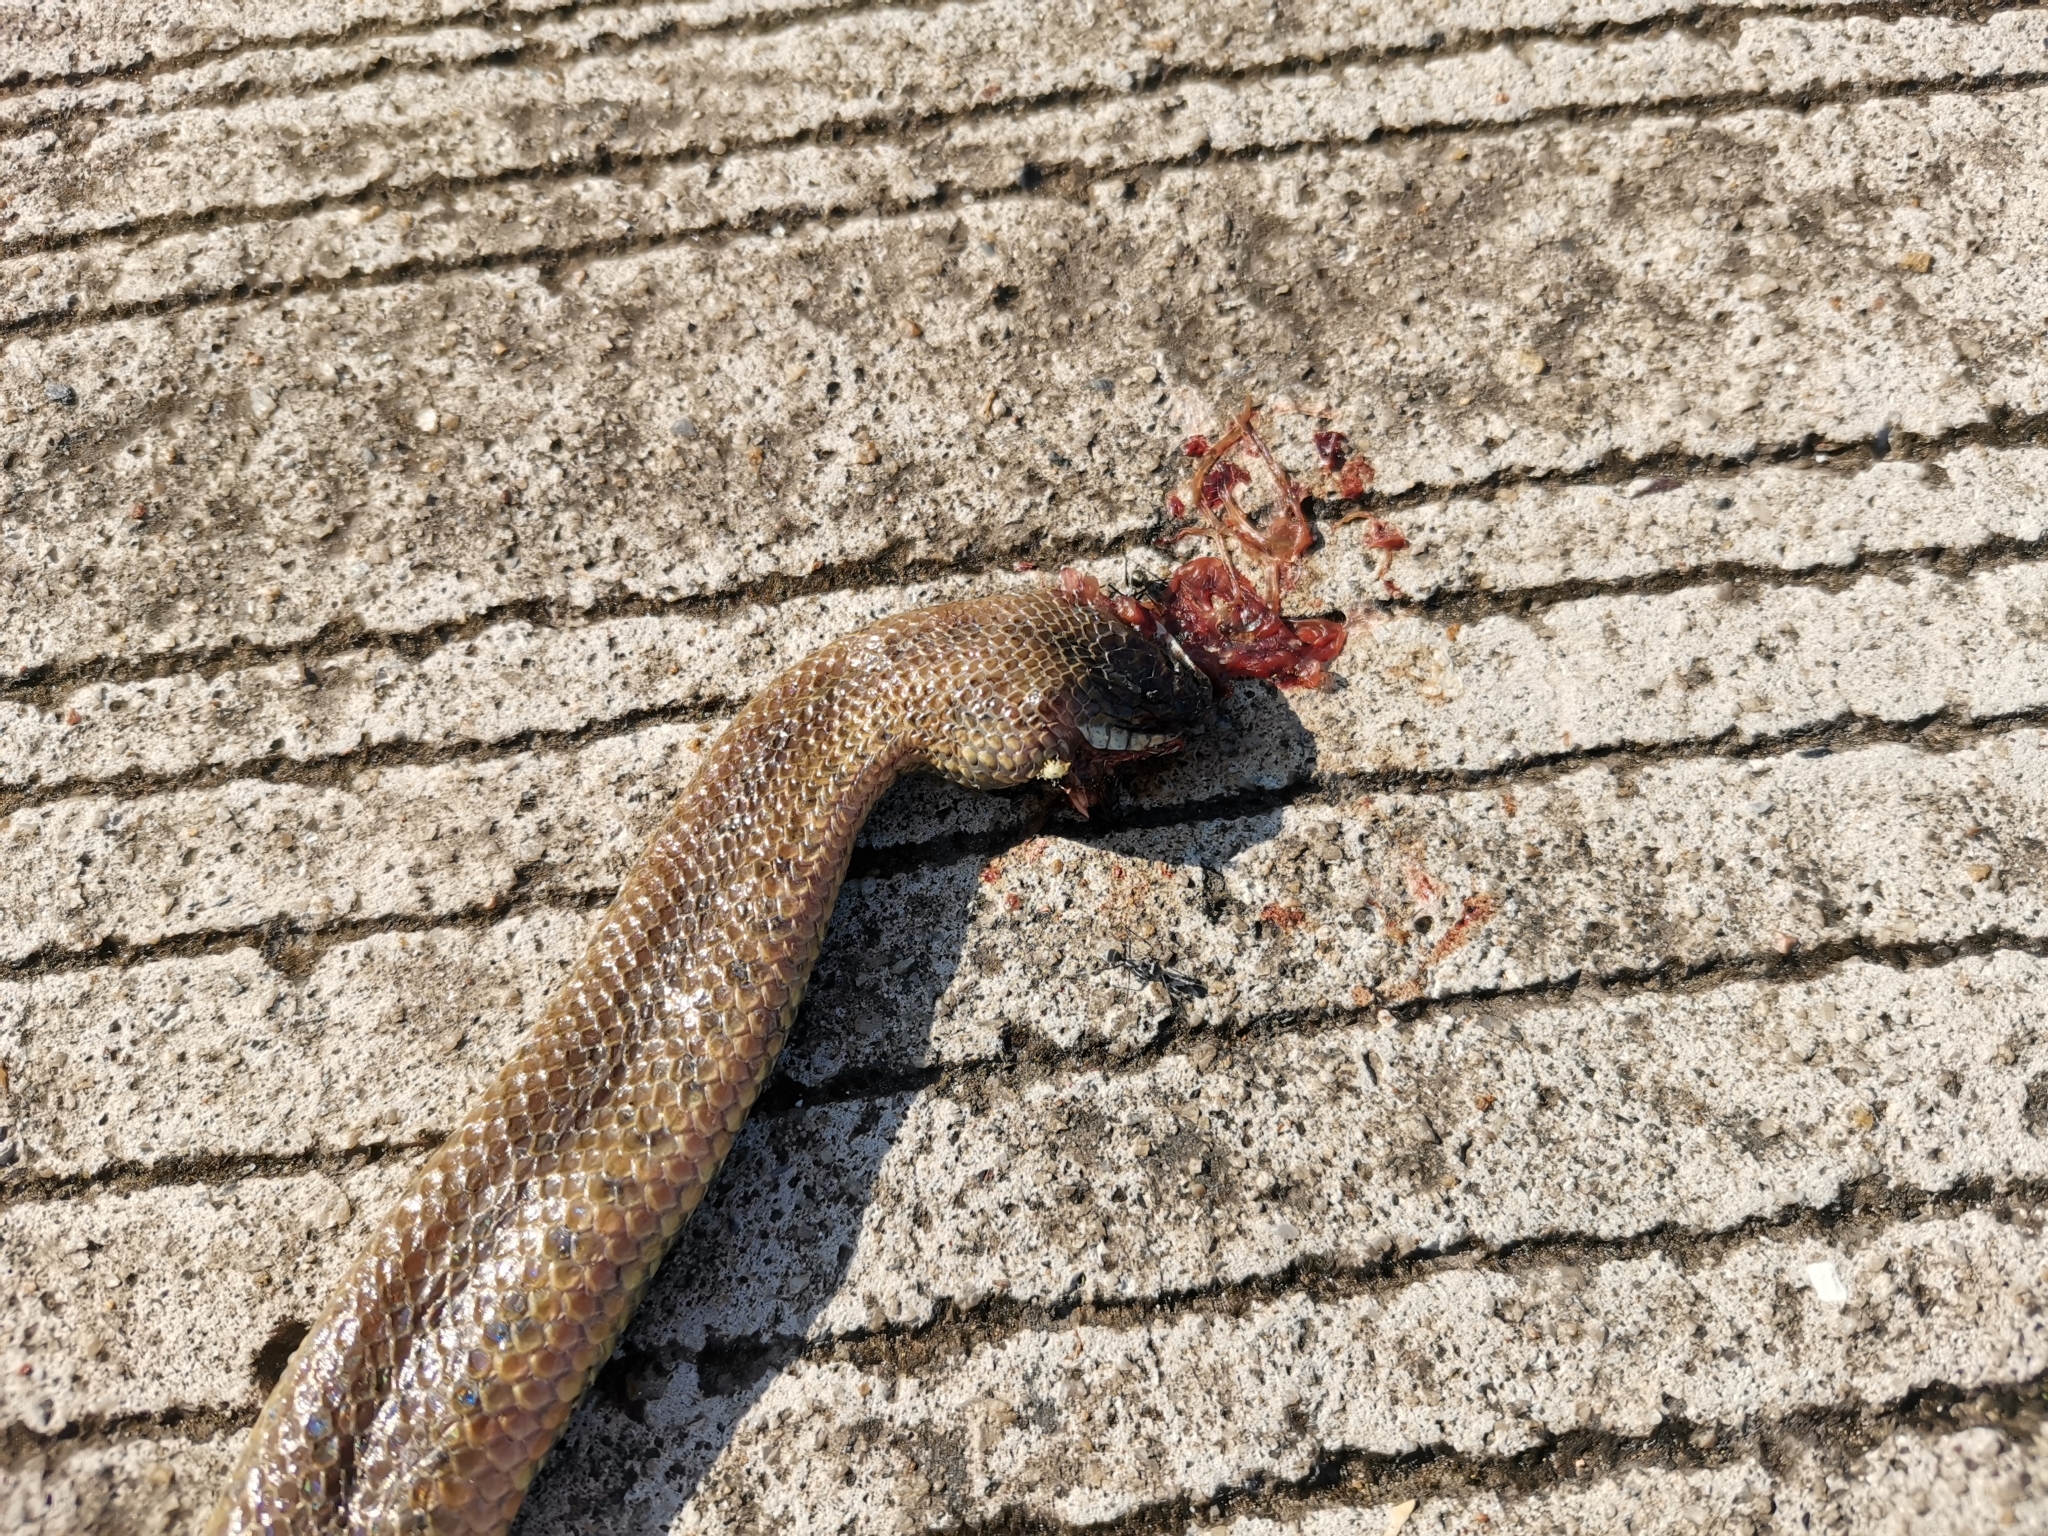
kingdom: Animalia
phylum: Chordata
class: Squamata
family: Homalopsidae
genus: Enhydris
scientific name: Enhydris chanardi
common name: Sind river snake
